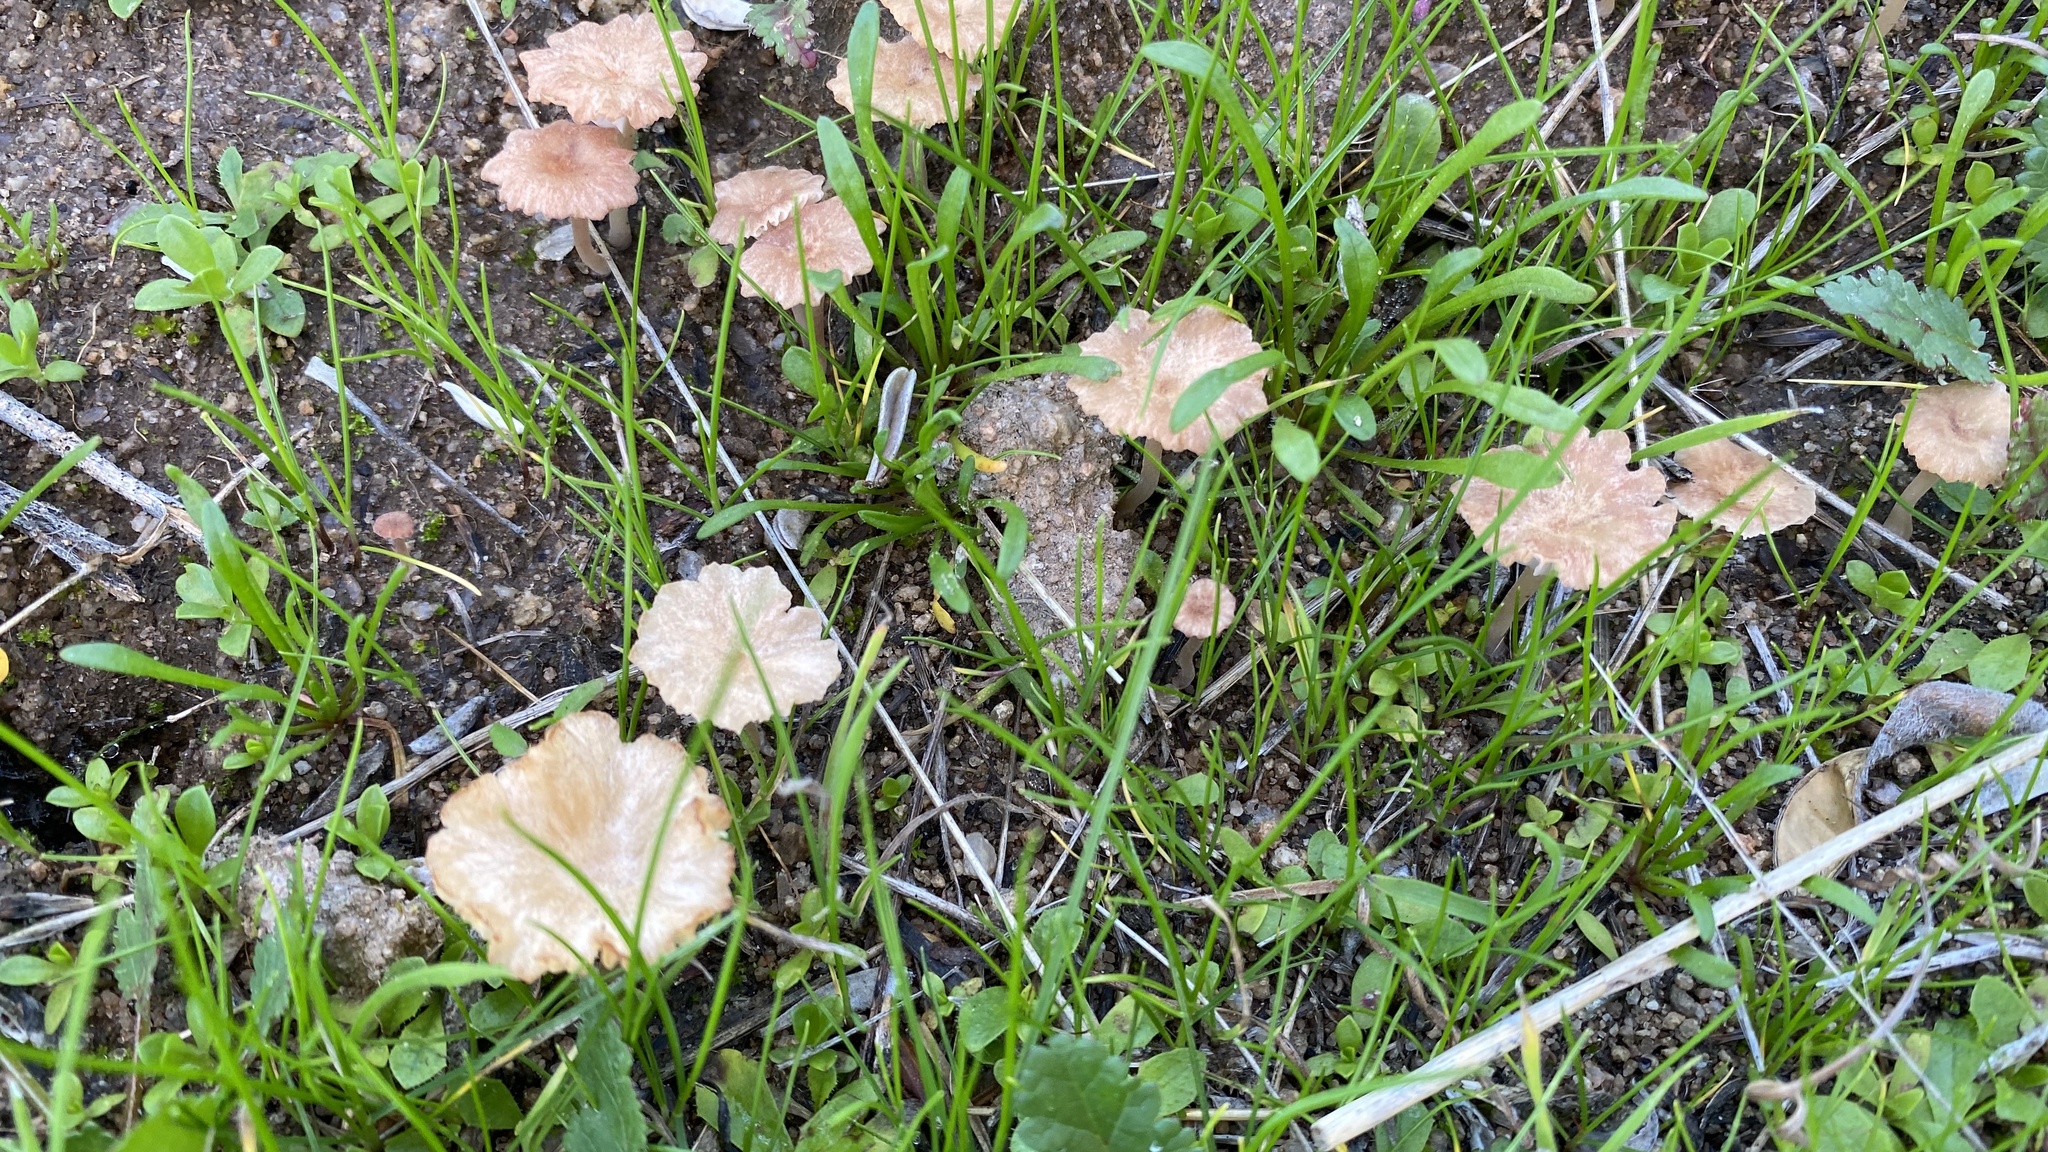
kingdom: Fungi
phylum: Basidiomycota
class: Agaricomycetes
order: Hymenochaetales
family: Rickenellaceae
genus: Contumyces
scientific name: Contumyces rosellus
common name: Rosy navel
